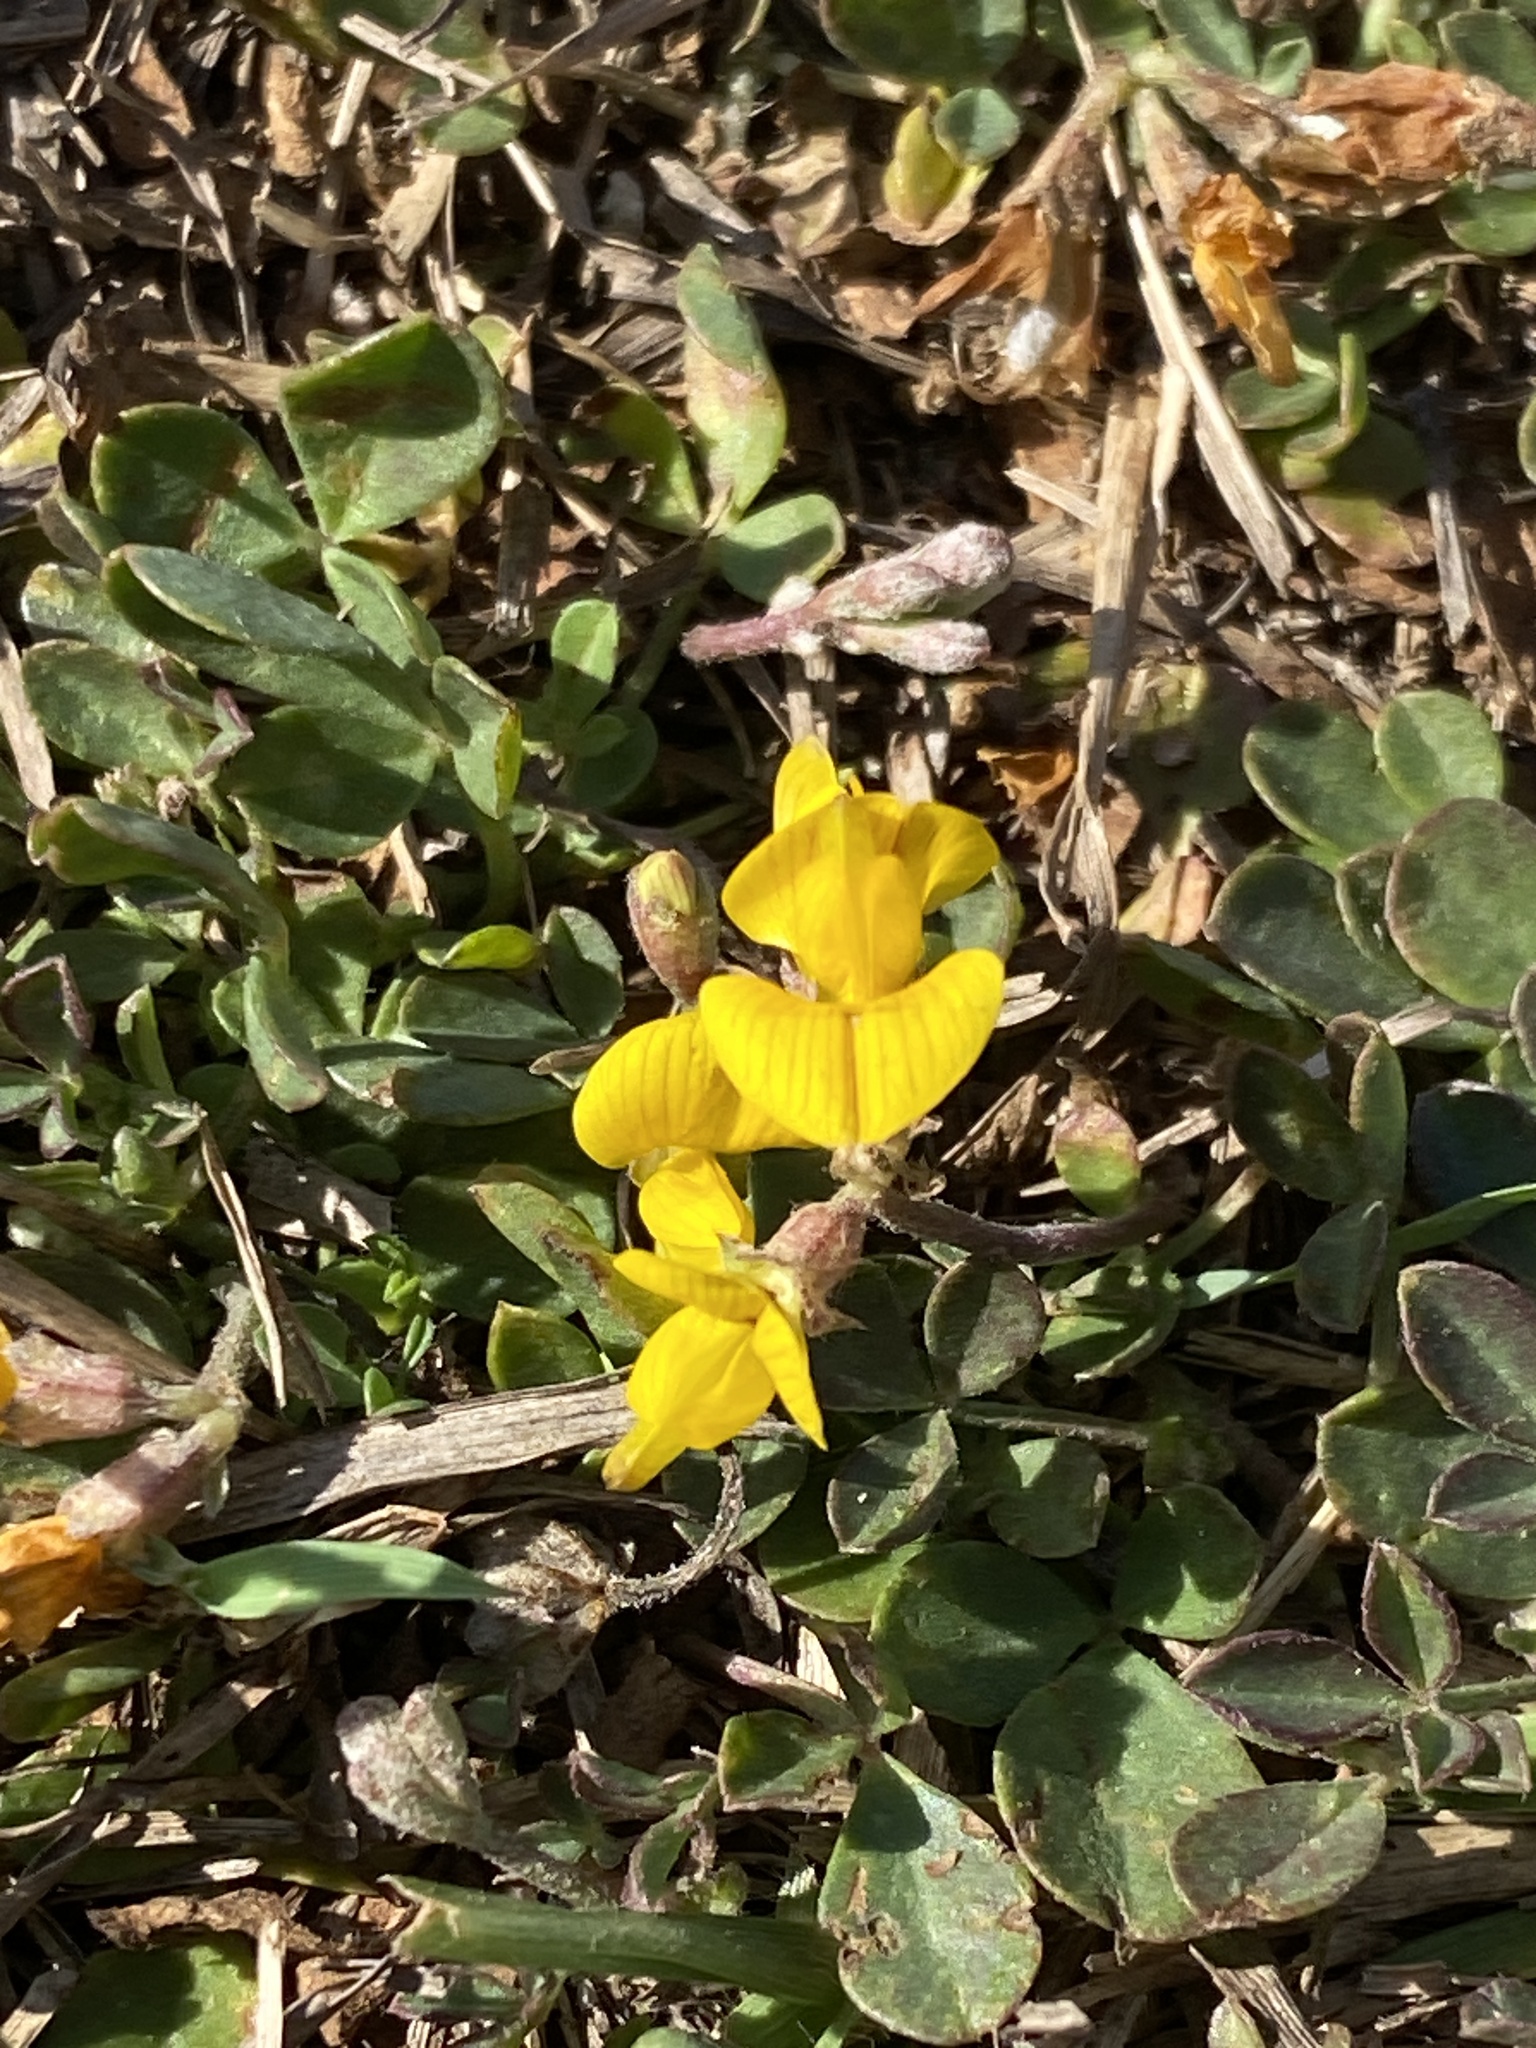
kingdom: Plantae
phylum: Tracheophyta
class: Magnoliopsida
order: Fabales
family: Fabaceae
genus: Listia
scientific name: Listia bainesii
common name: Lotononis
